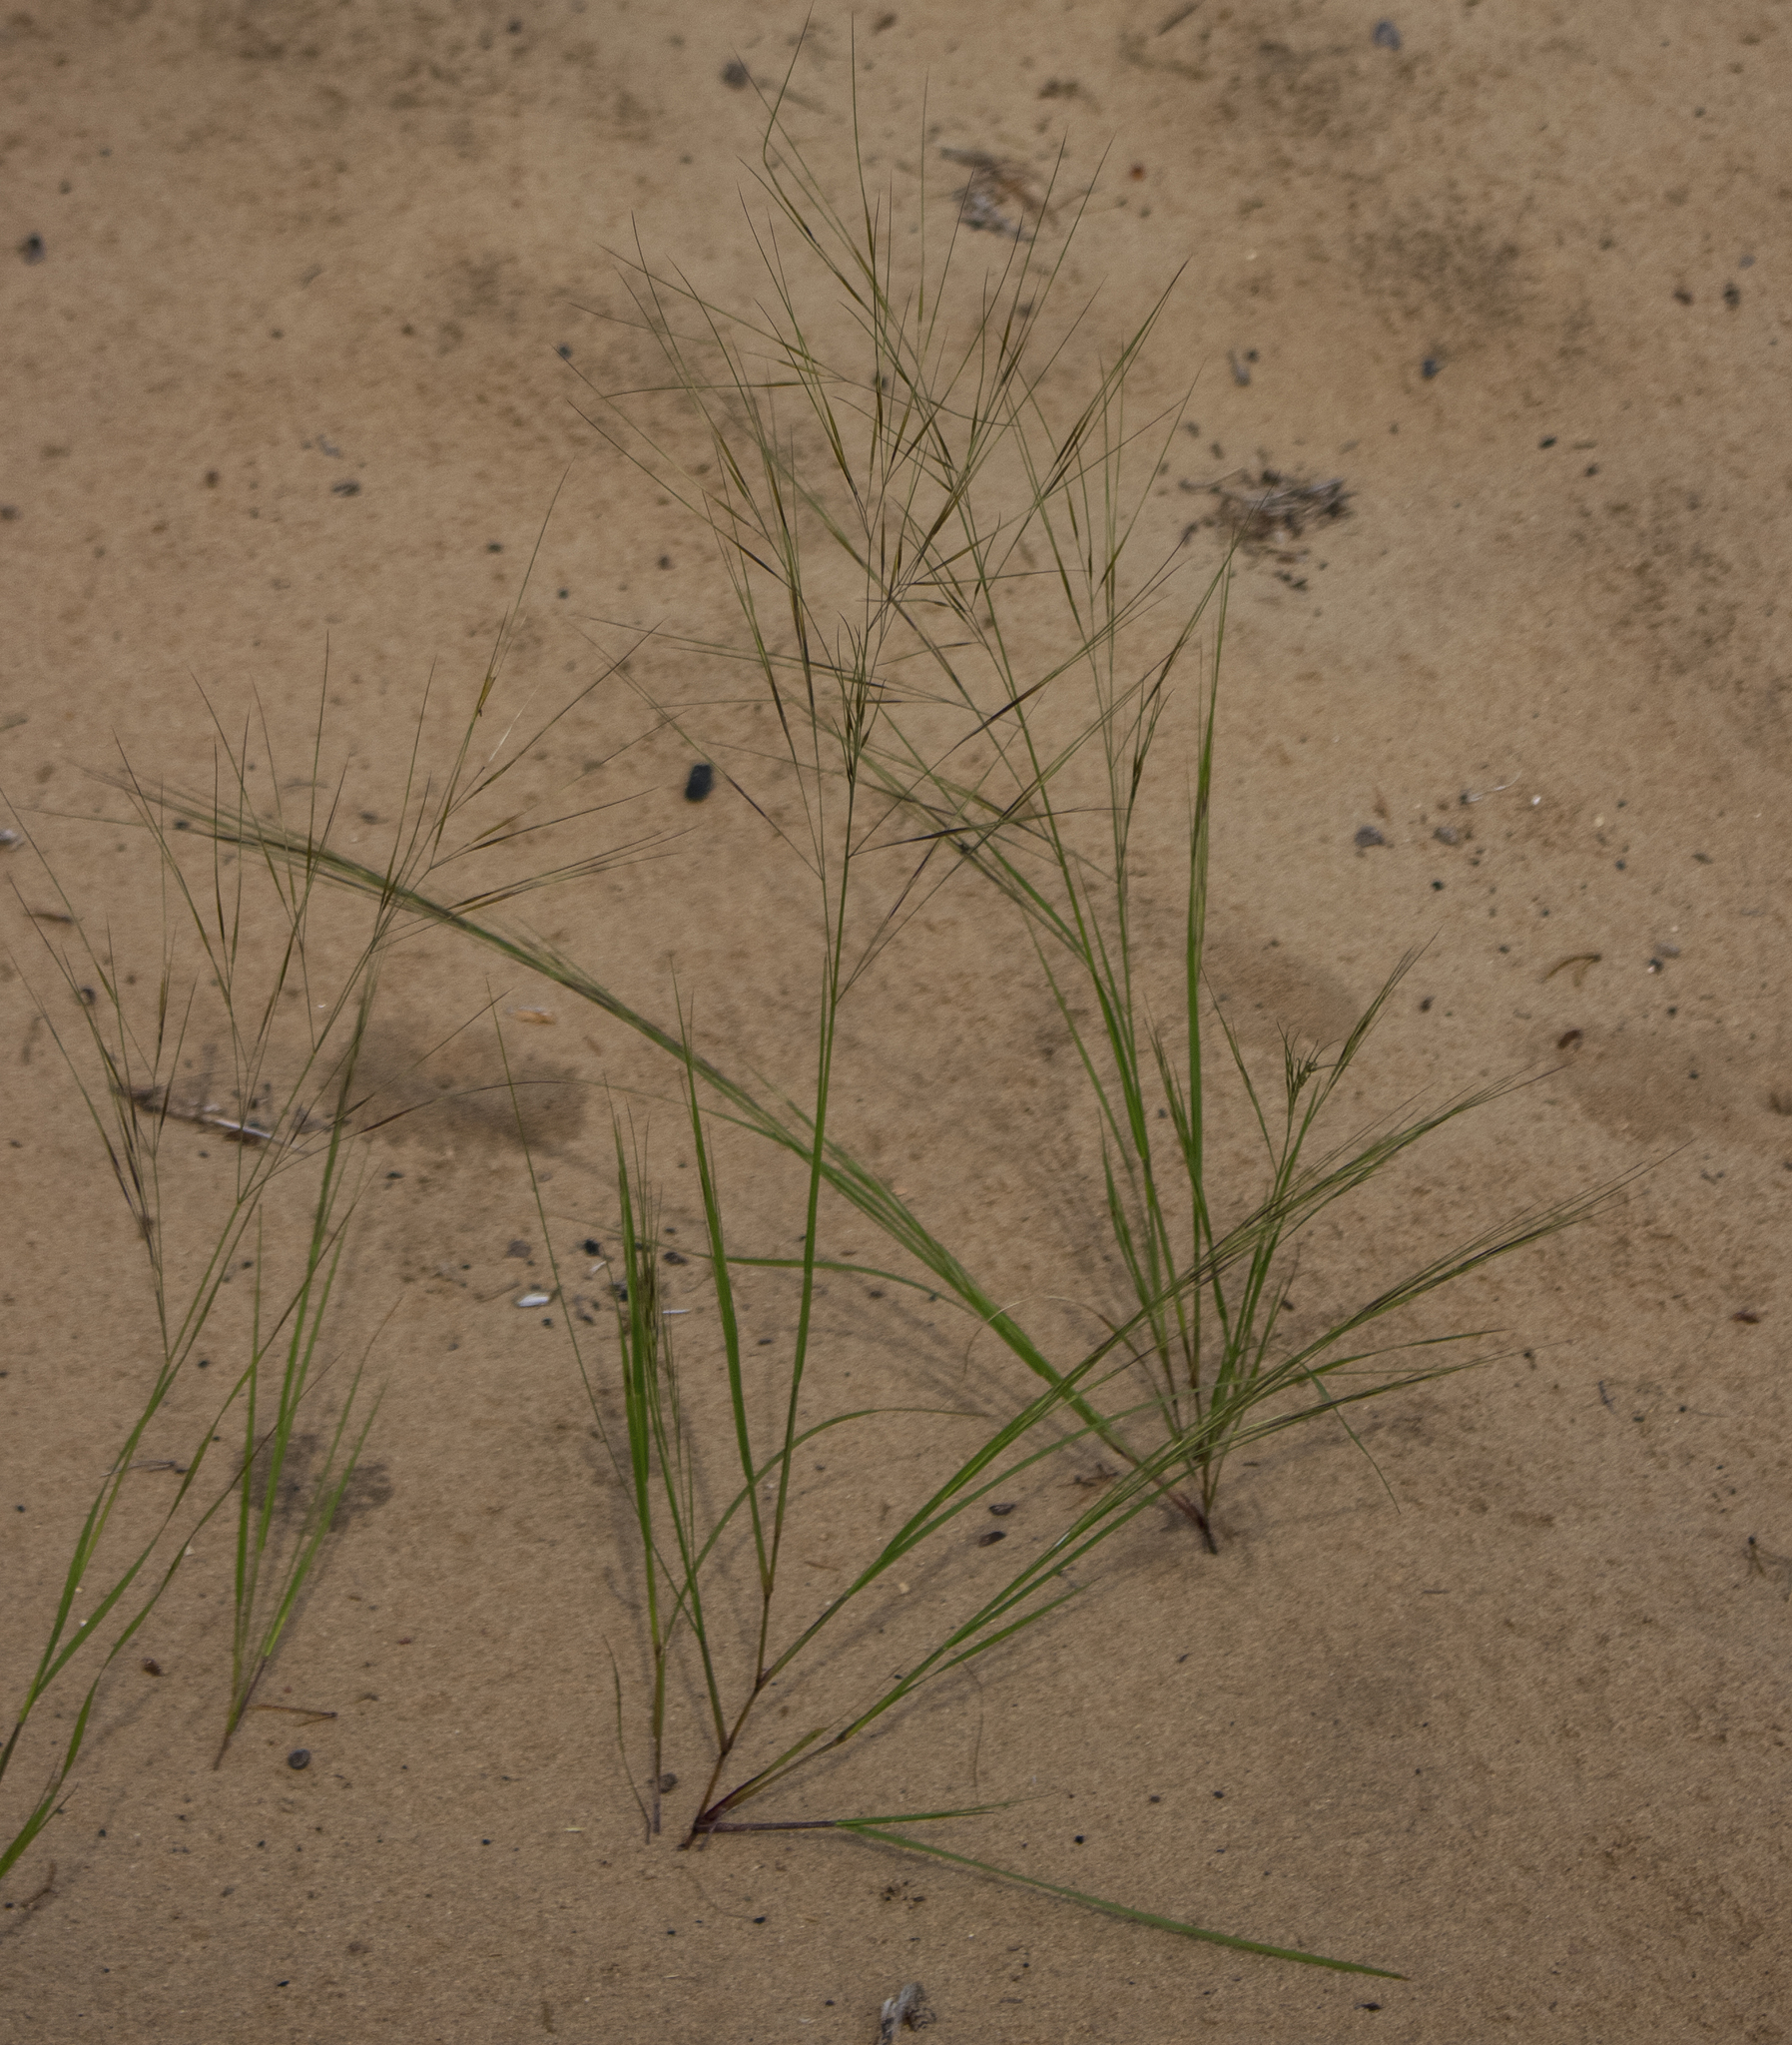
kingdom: Plantae
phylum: Tracheophyta
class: Liliopsida
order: Poales
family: Poaceae
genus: Aristida
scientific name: Aristida tuberculosa
